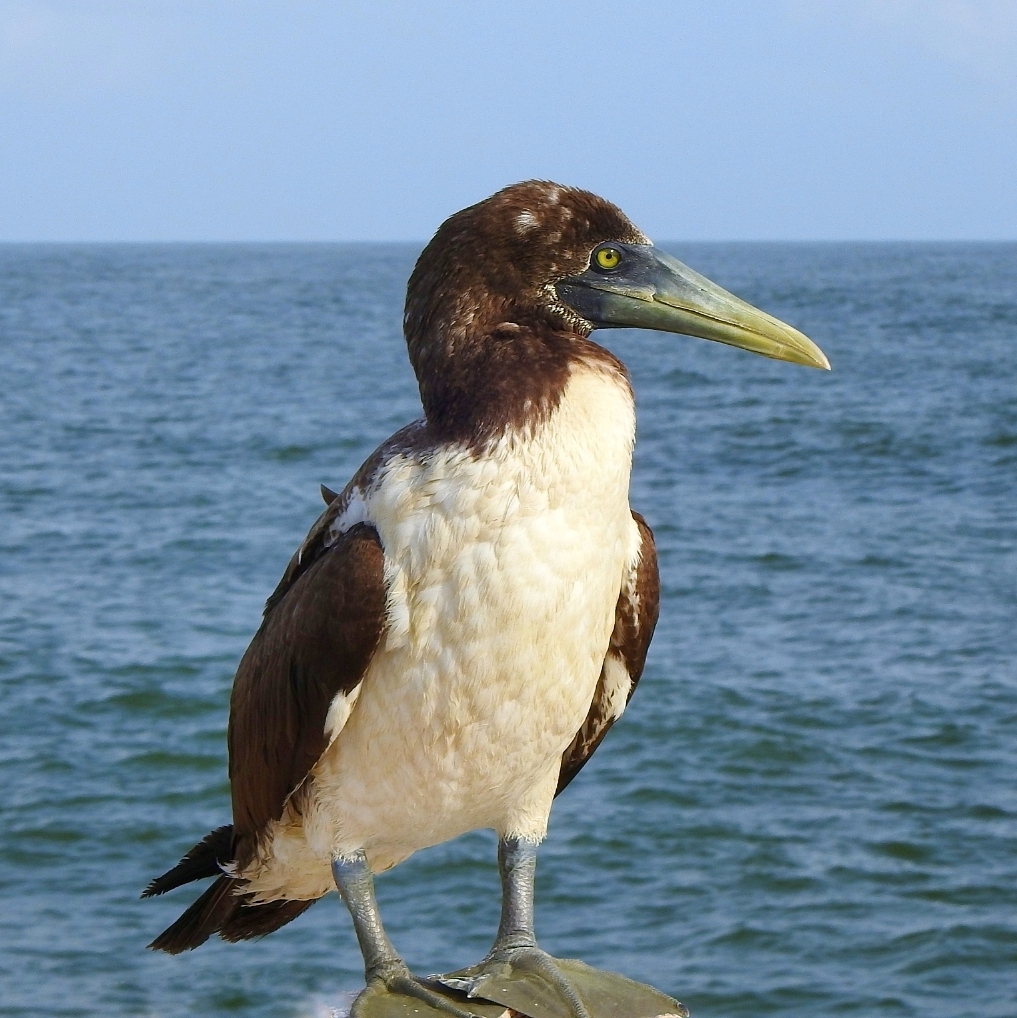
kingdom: Animalia
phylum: Chordata
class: Aves
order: Suliformes
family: Sulidae
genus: Sula
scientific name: Sula dactylatra
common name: Masked booby
